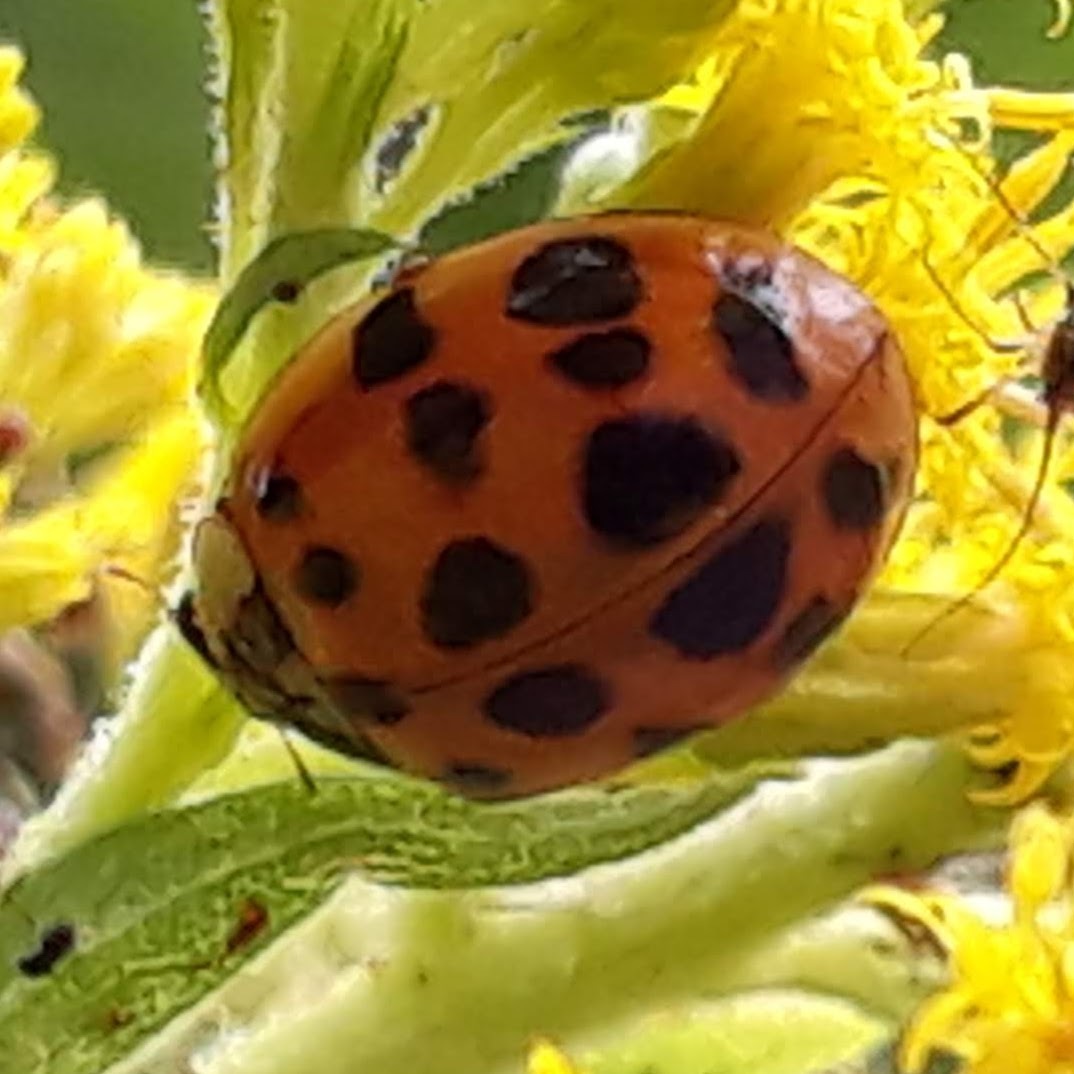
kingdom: Animalia
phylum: Arthropoda
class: Insecta
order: Coleoptera
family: Coccinellidae
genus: Harmonia
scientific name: Harmonia axyridis
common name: Harlequin ladybird
